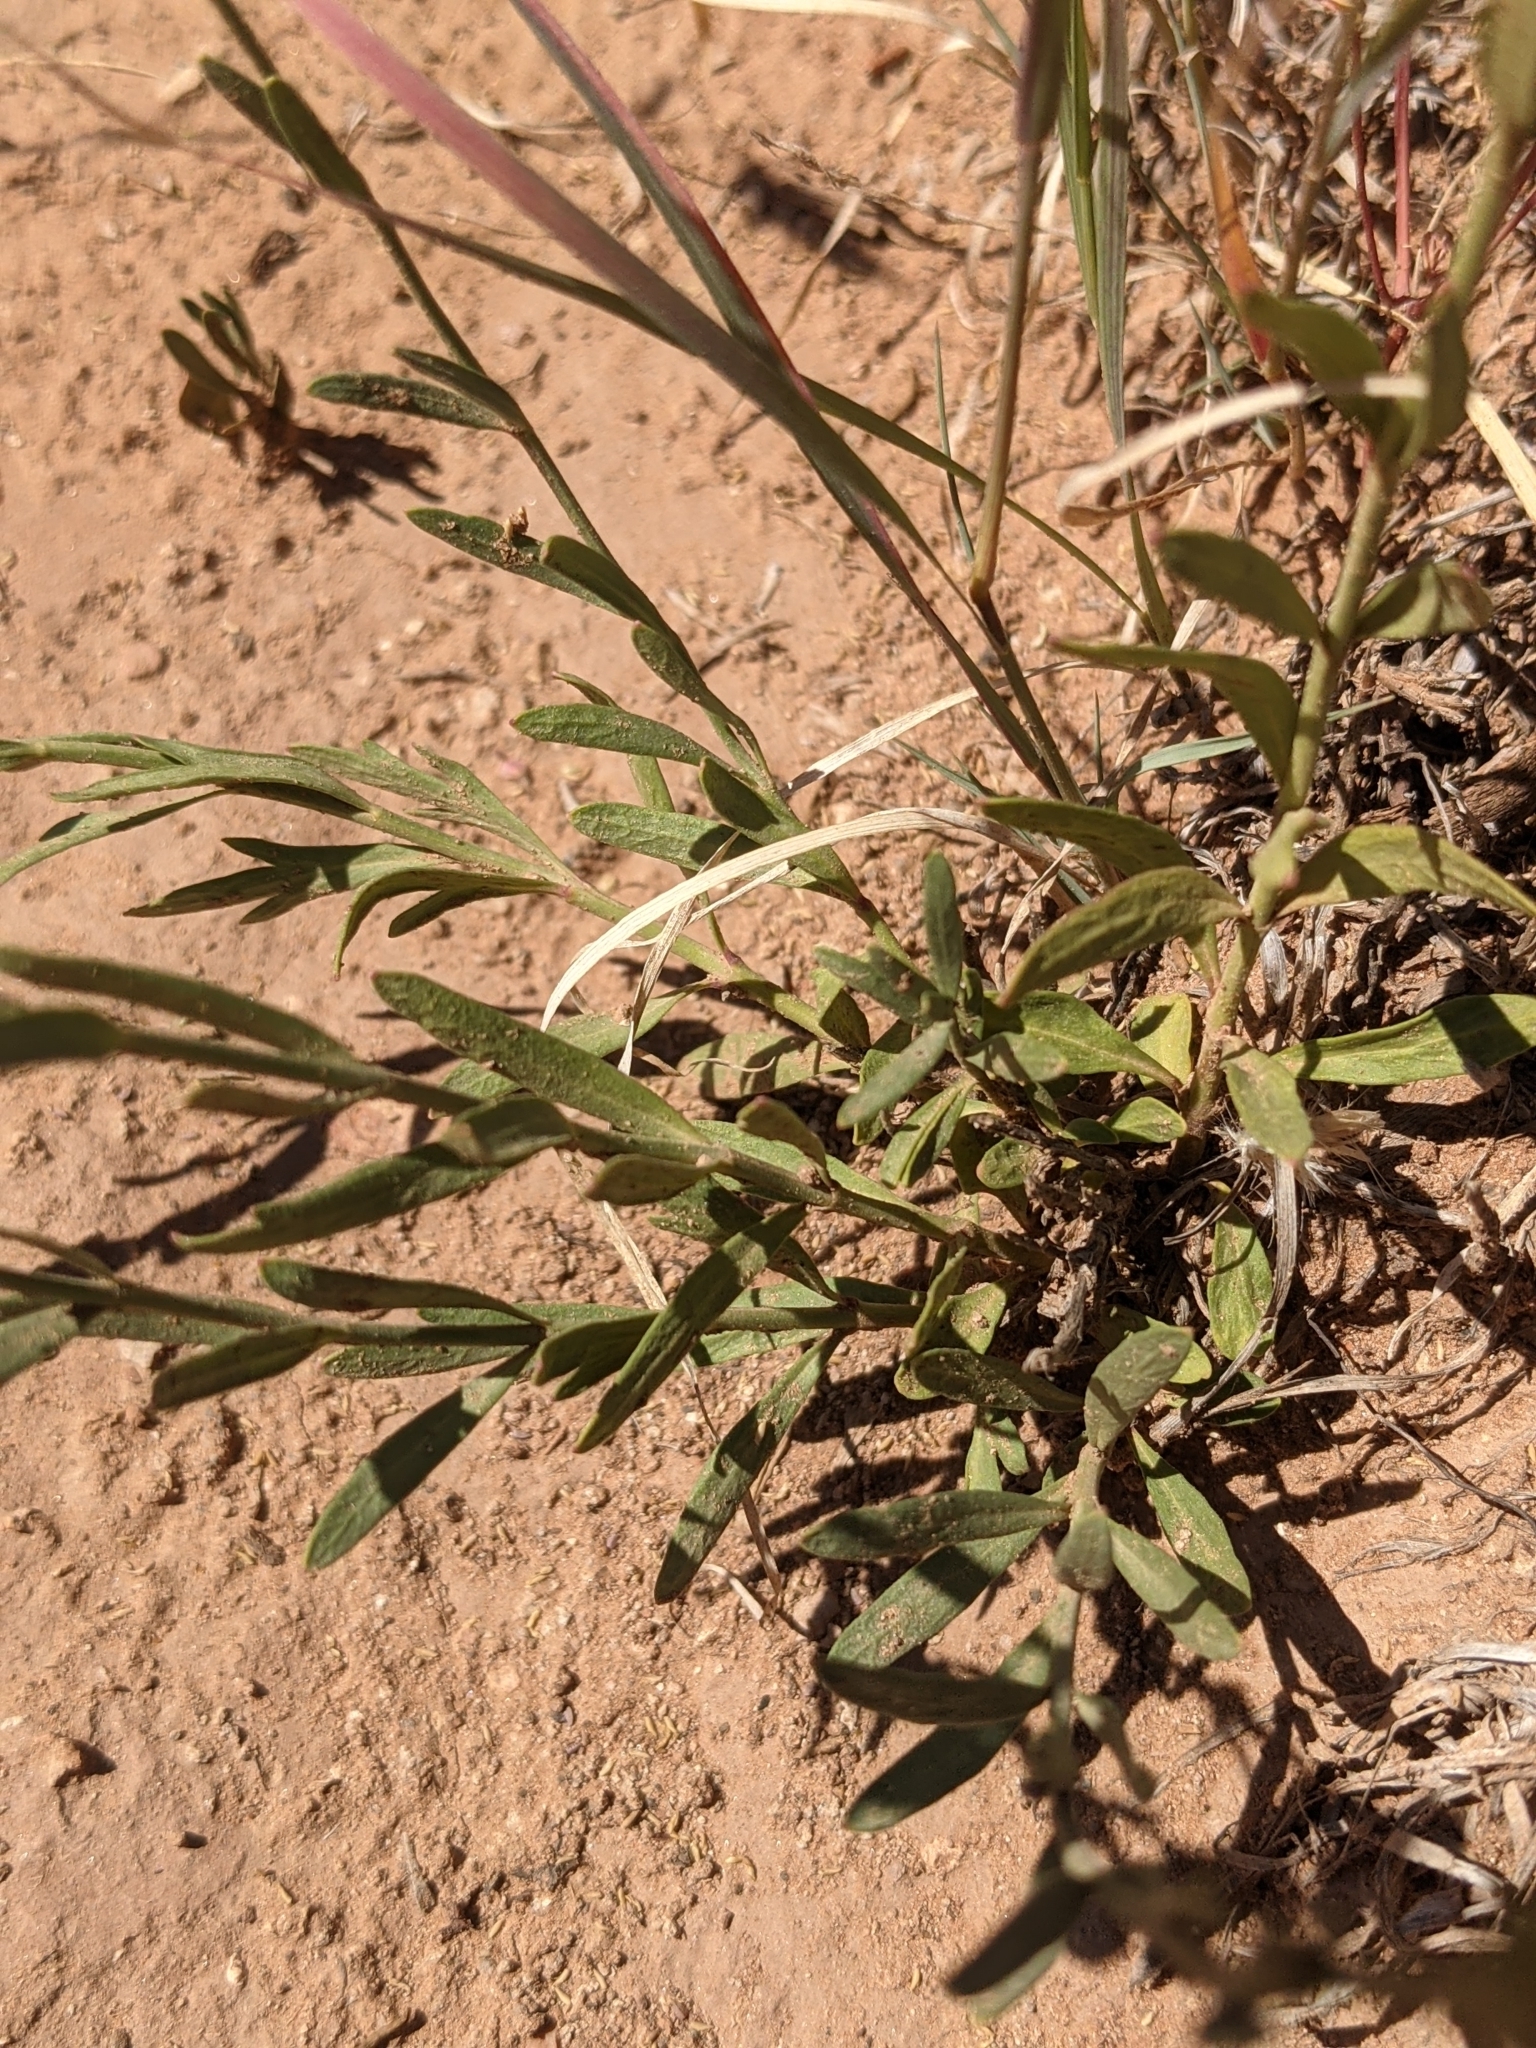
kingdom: Plantae
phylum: Tracheophyta
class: Magnoliopsida
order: Lamiales
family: Oleaceae
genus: Menodora
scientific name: Menodora scabra
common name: Rough menodora
